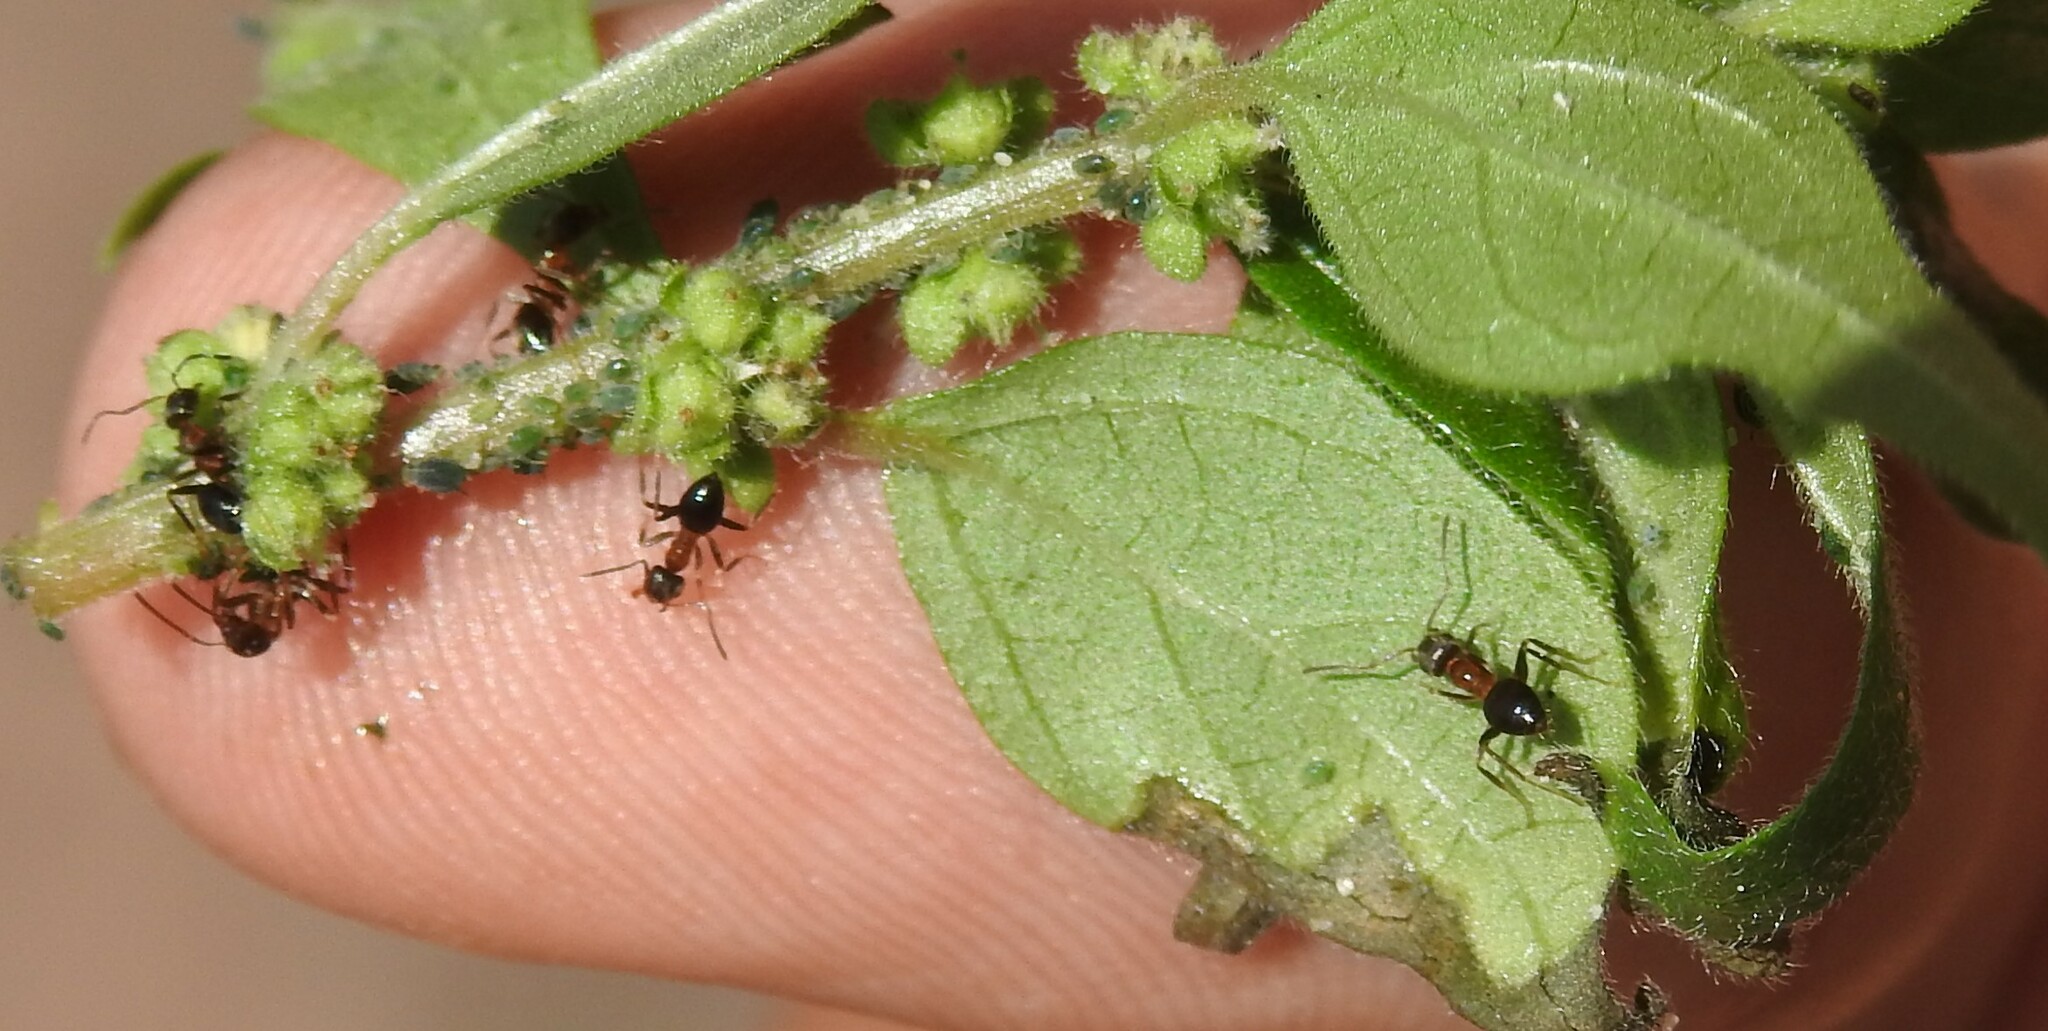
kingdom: Animalia
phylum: Arthropoda
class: Insecta
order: Hymenoptera
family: Formicidae
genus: Lasius
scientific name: Lasius emarginatus
